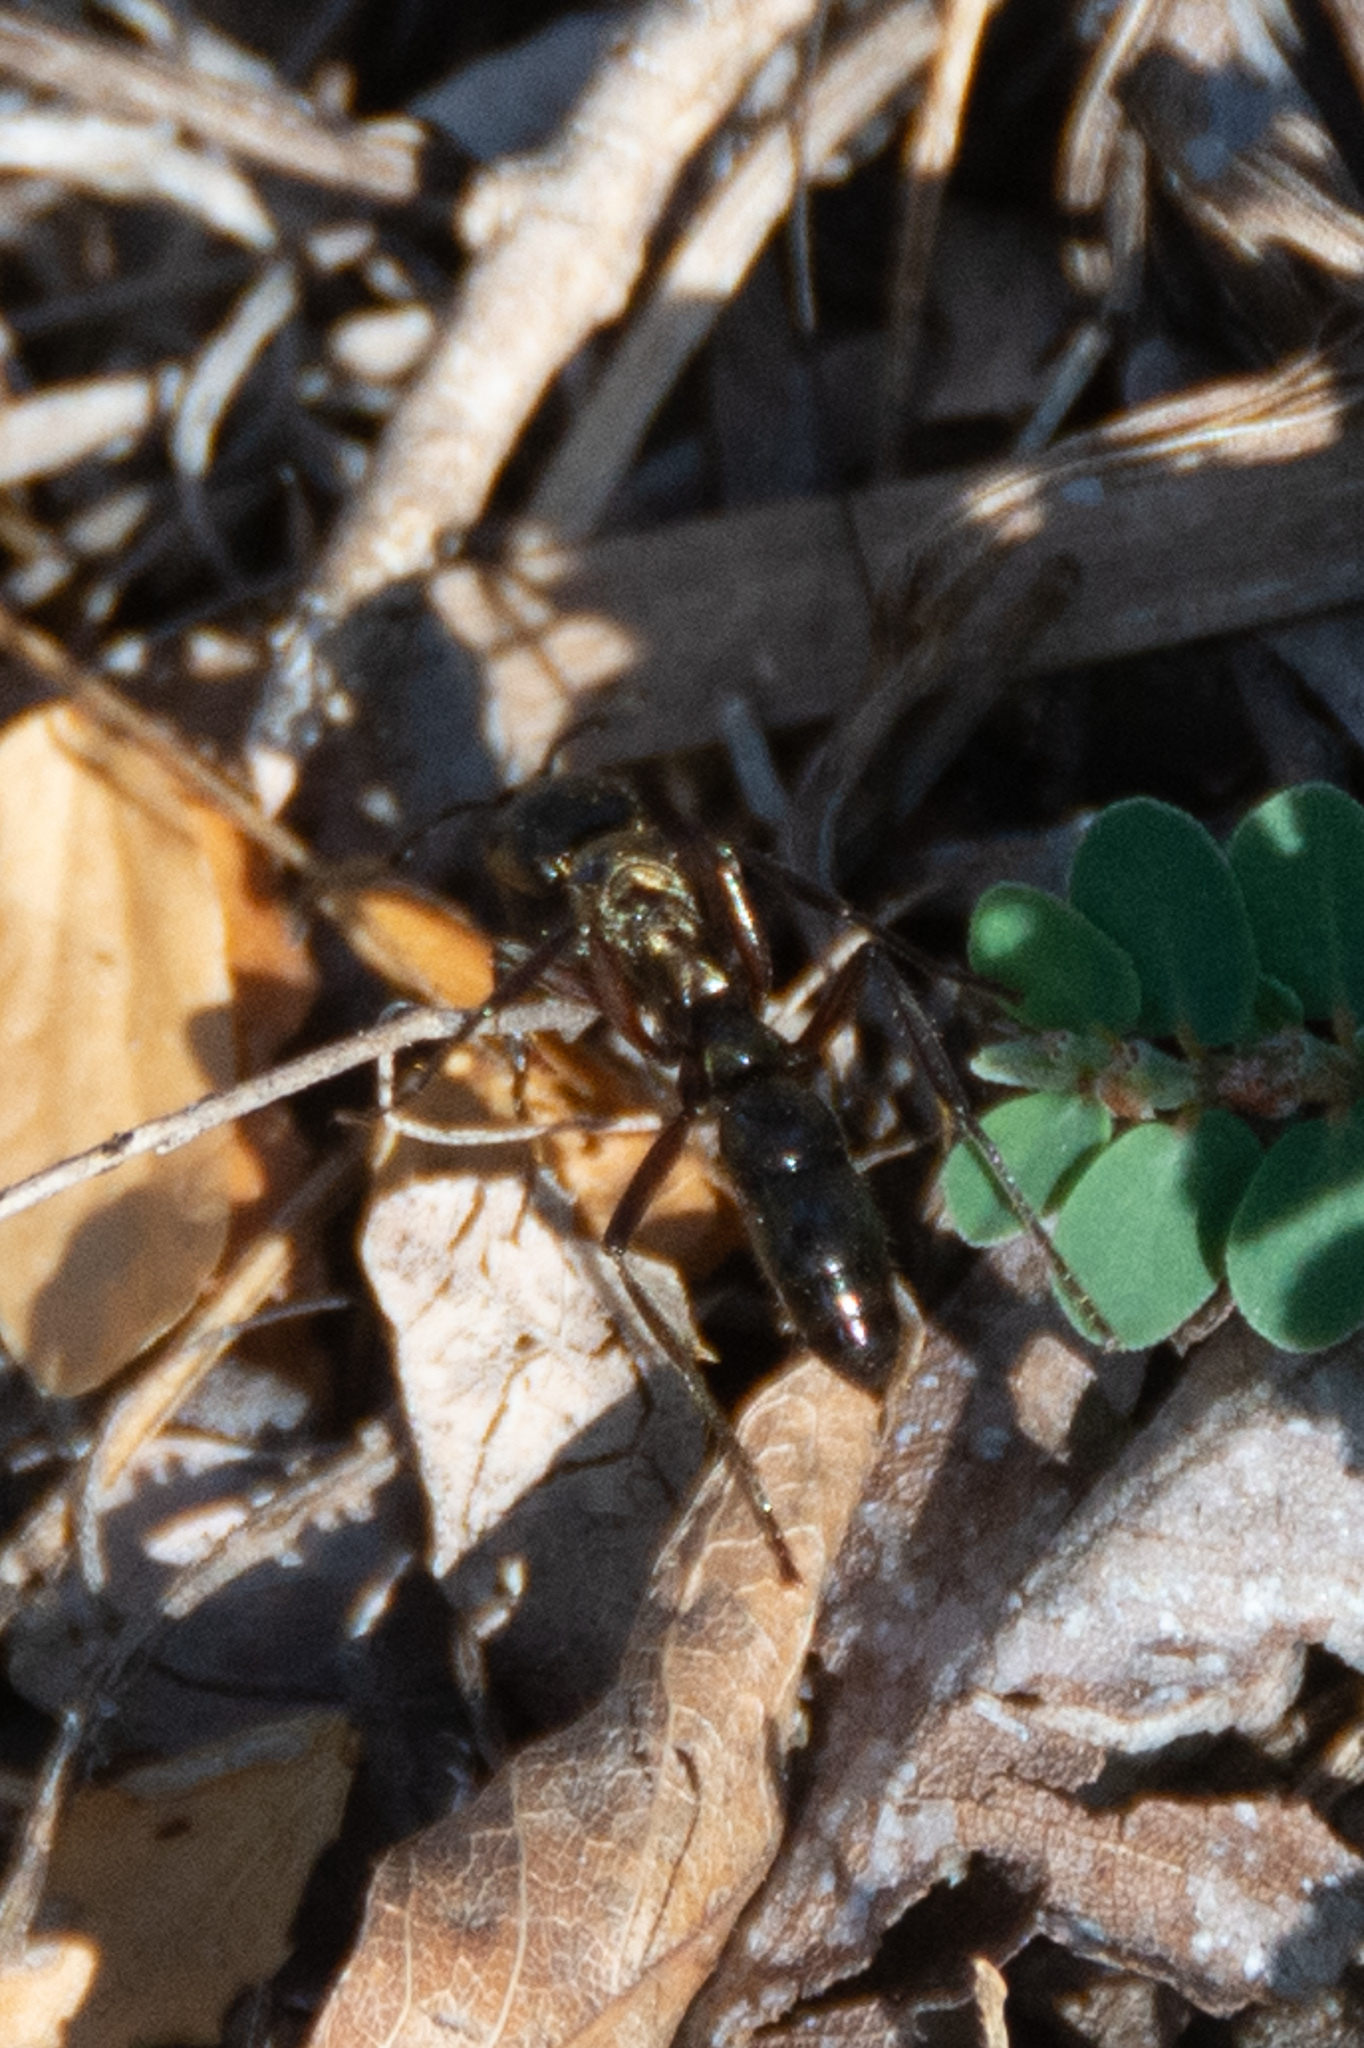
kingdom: Animalia
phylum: Arthropoda
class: Insecta
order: Hymenoptera
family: Formicidae
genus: Pachycondyla
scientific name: Pachycondyla villosa
